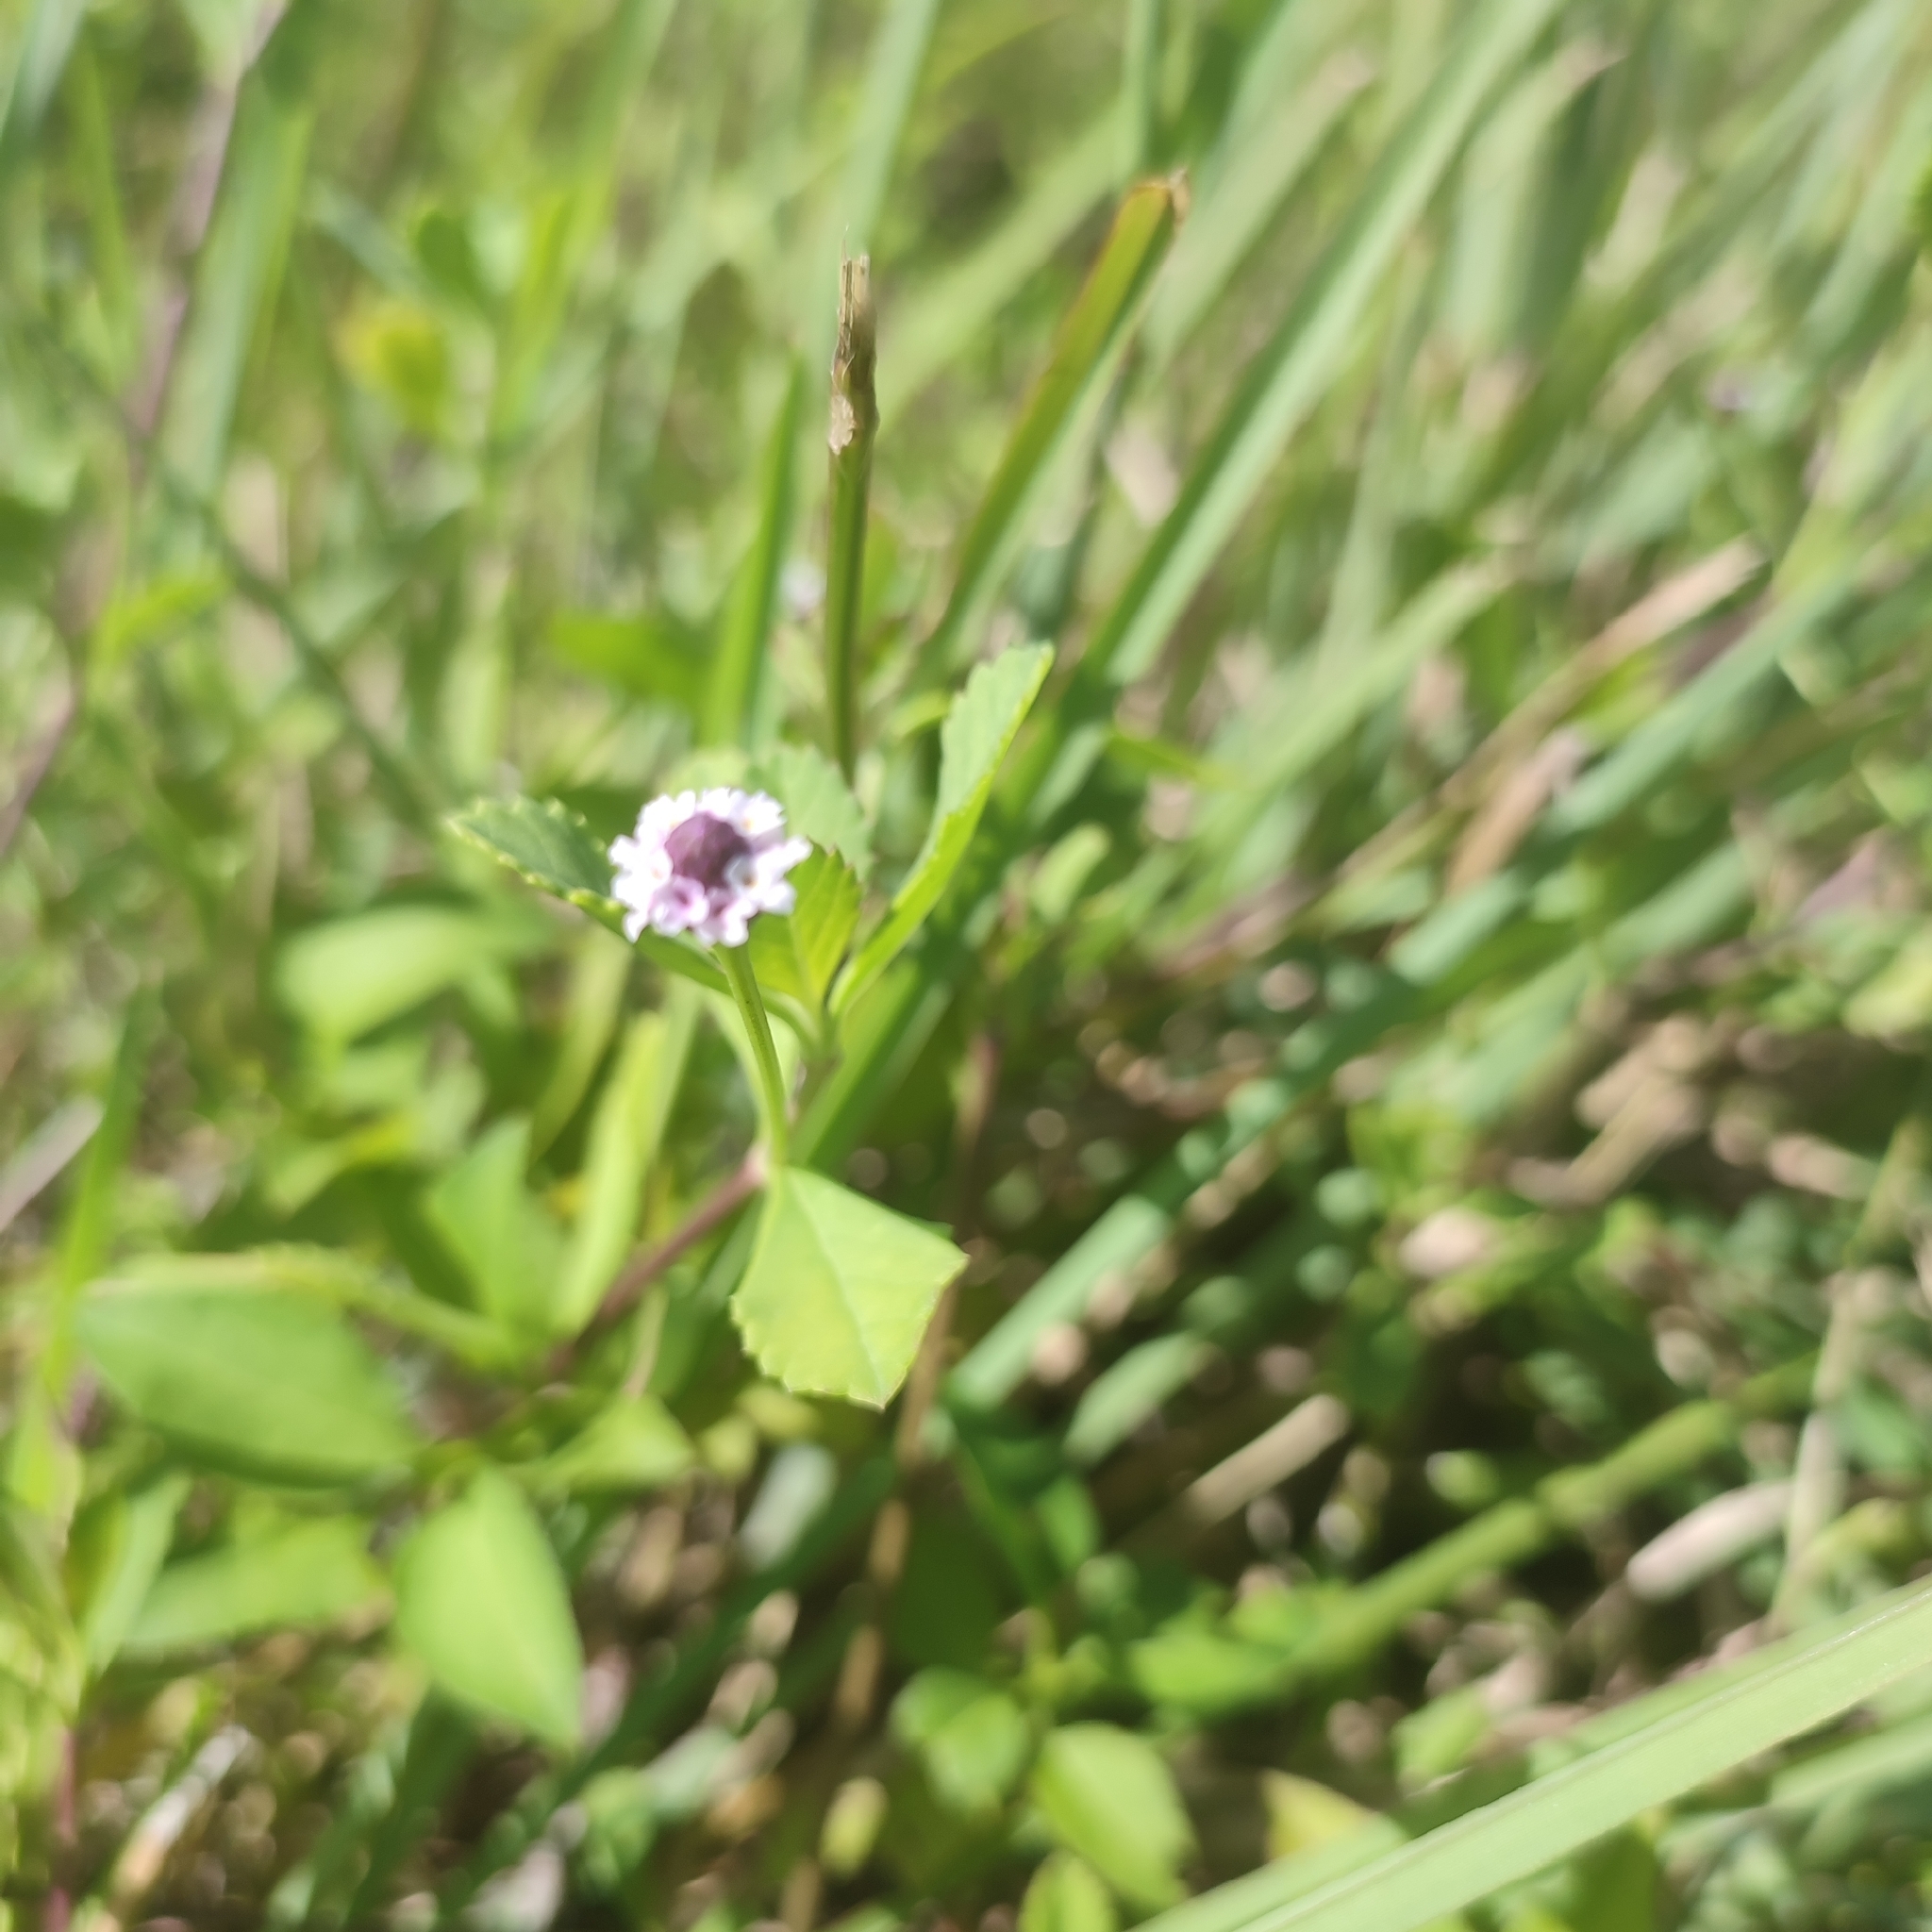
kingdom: Plantae
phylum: Tracheophyta
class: Magnoliopsida
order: Lamiales
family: Verbenaceae
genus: Phyla
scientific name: Phyla nodiflora
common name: Frogfruit
